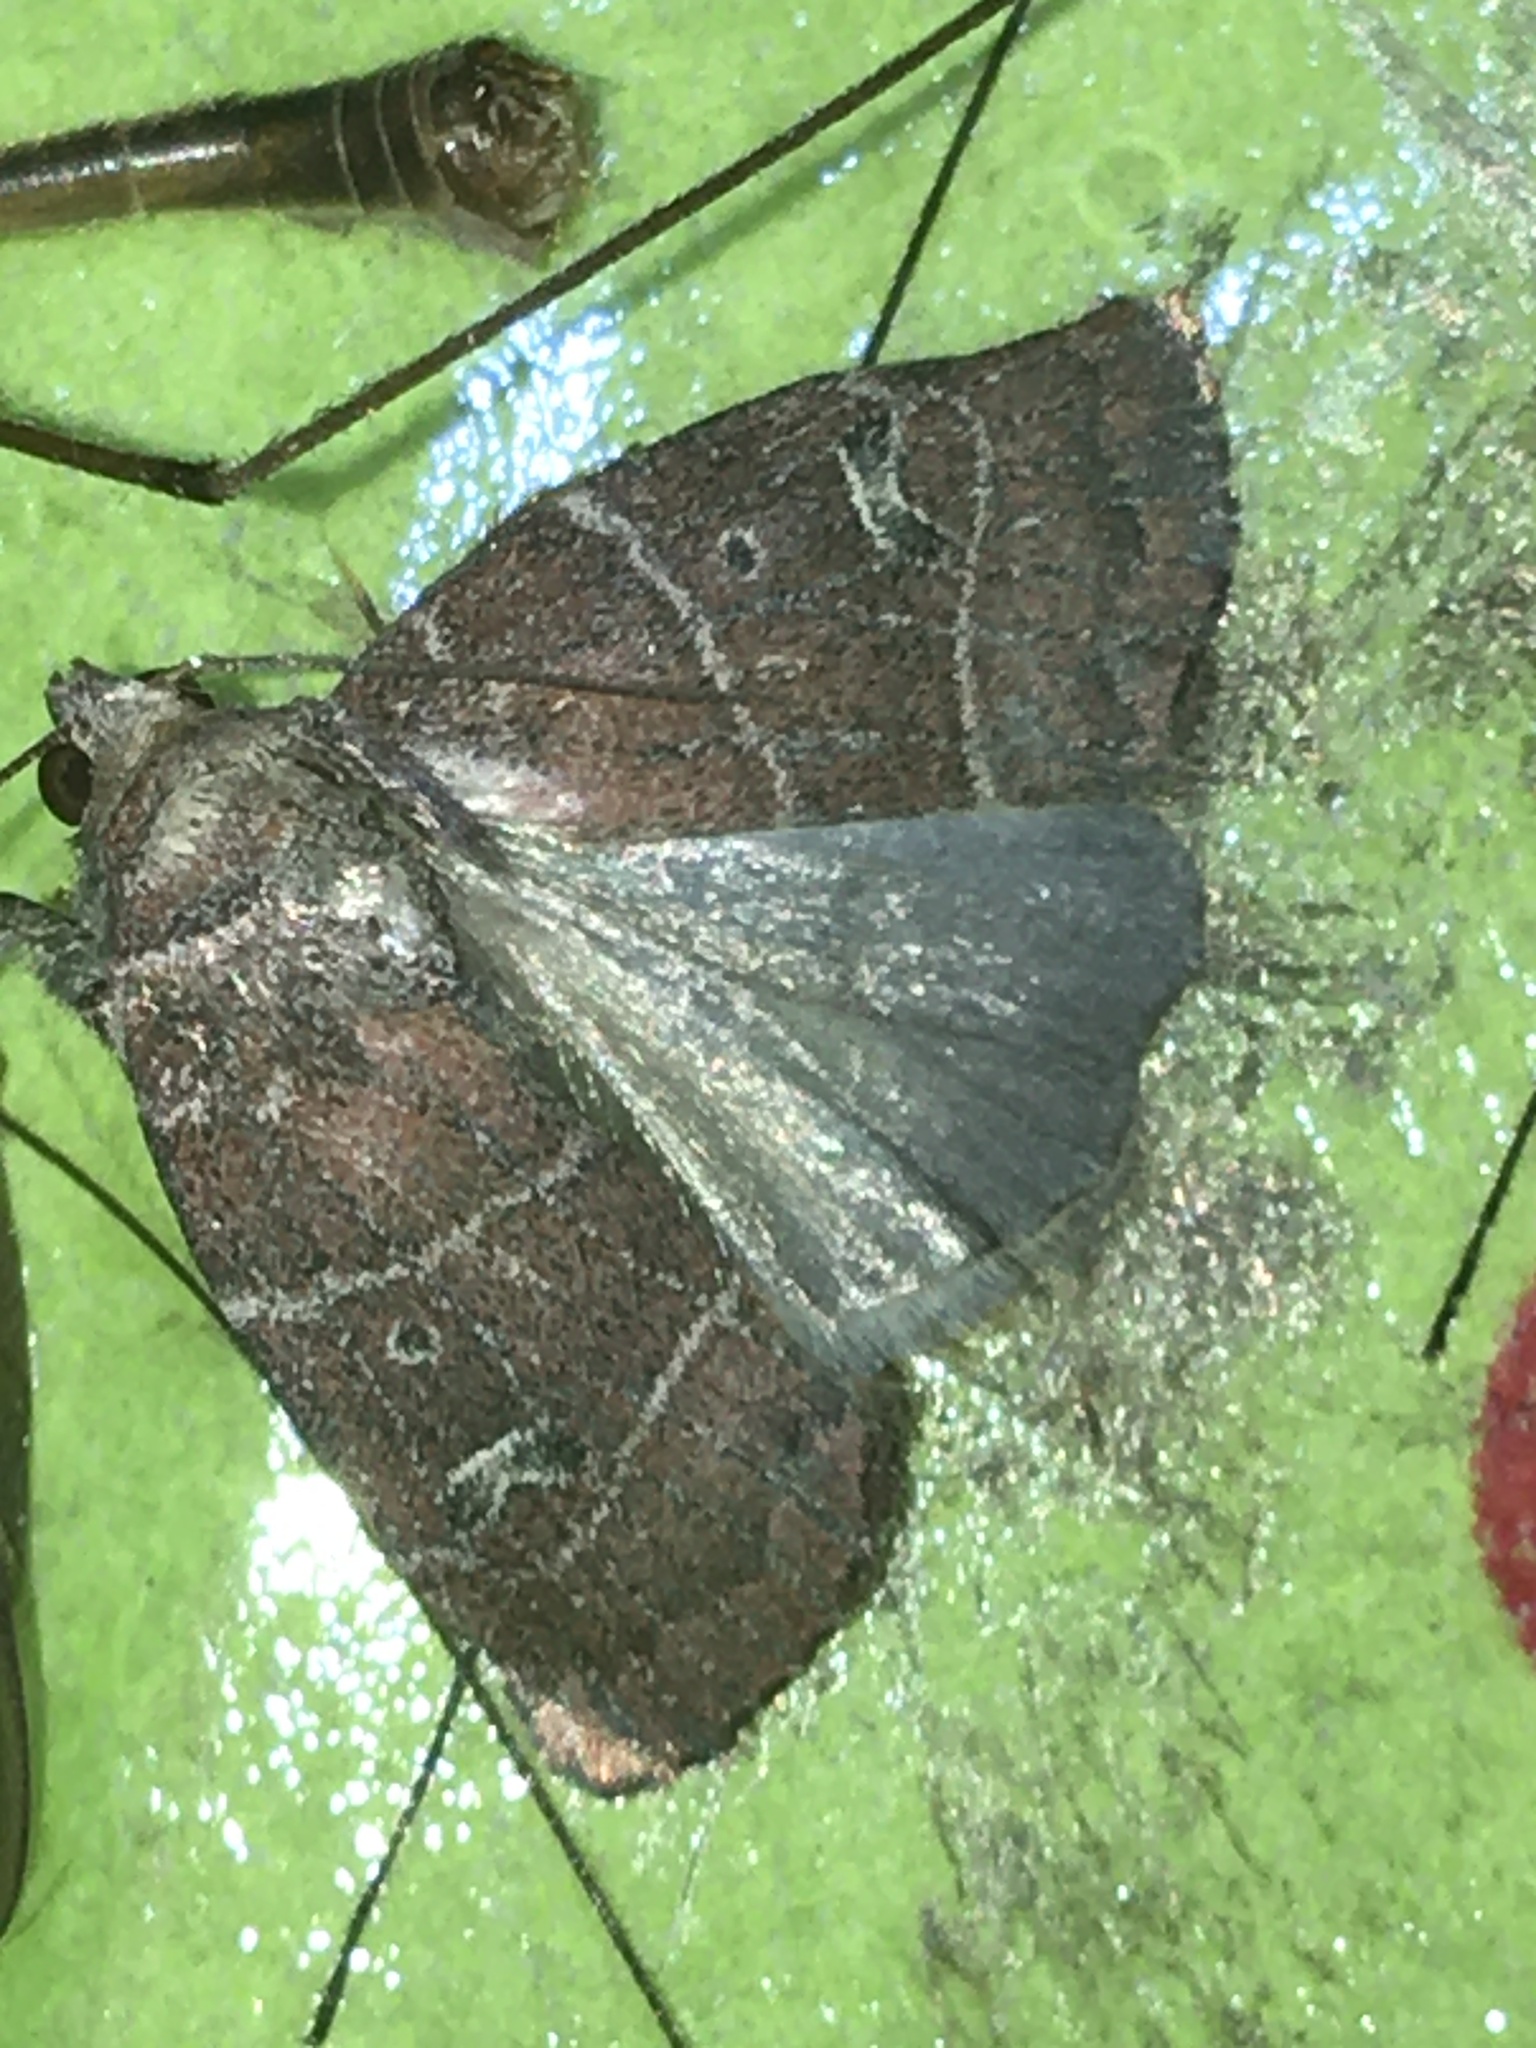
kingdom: Animalia
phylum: Arthropoda
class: Insecta
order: Lepidoptera
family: Noctuidae
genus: Elaphria
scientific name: Elaphria grata
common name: Grateful midget moth
